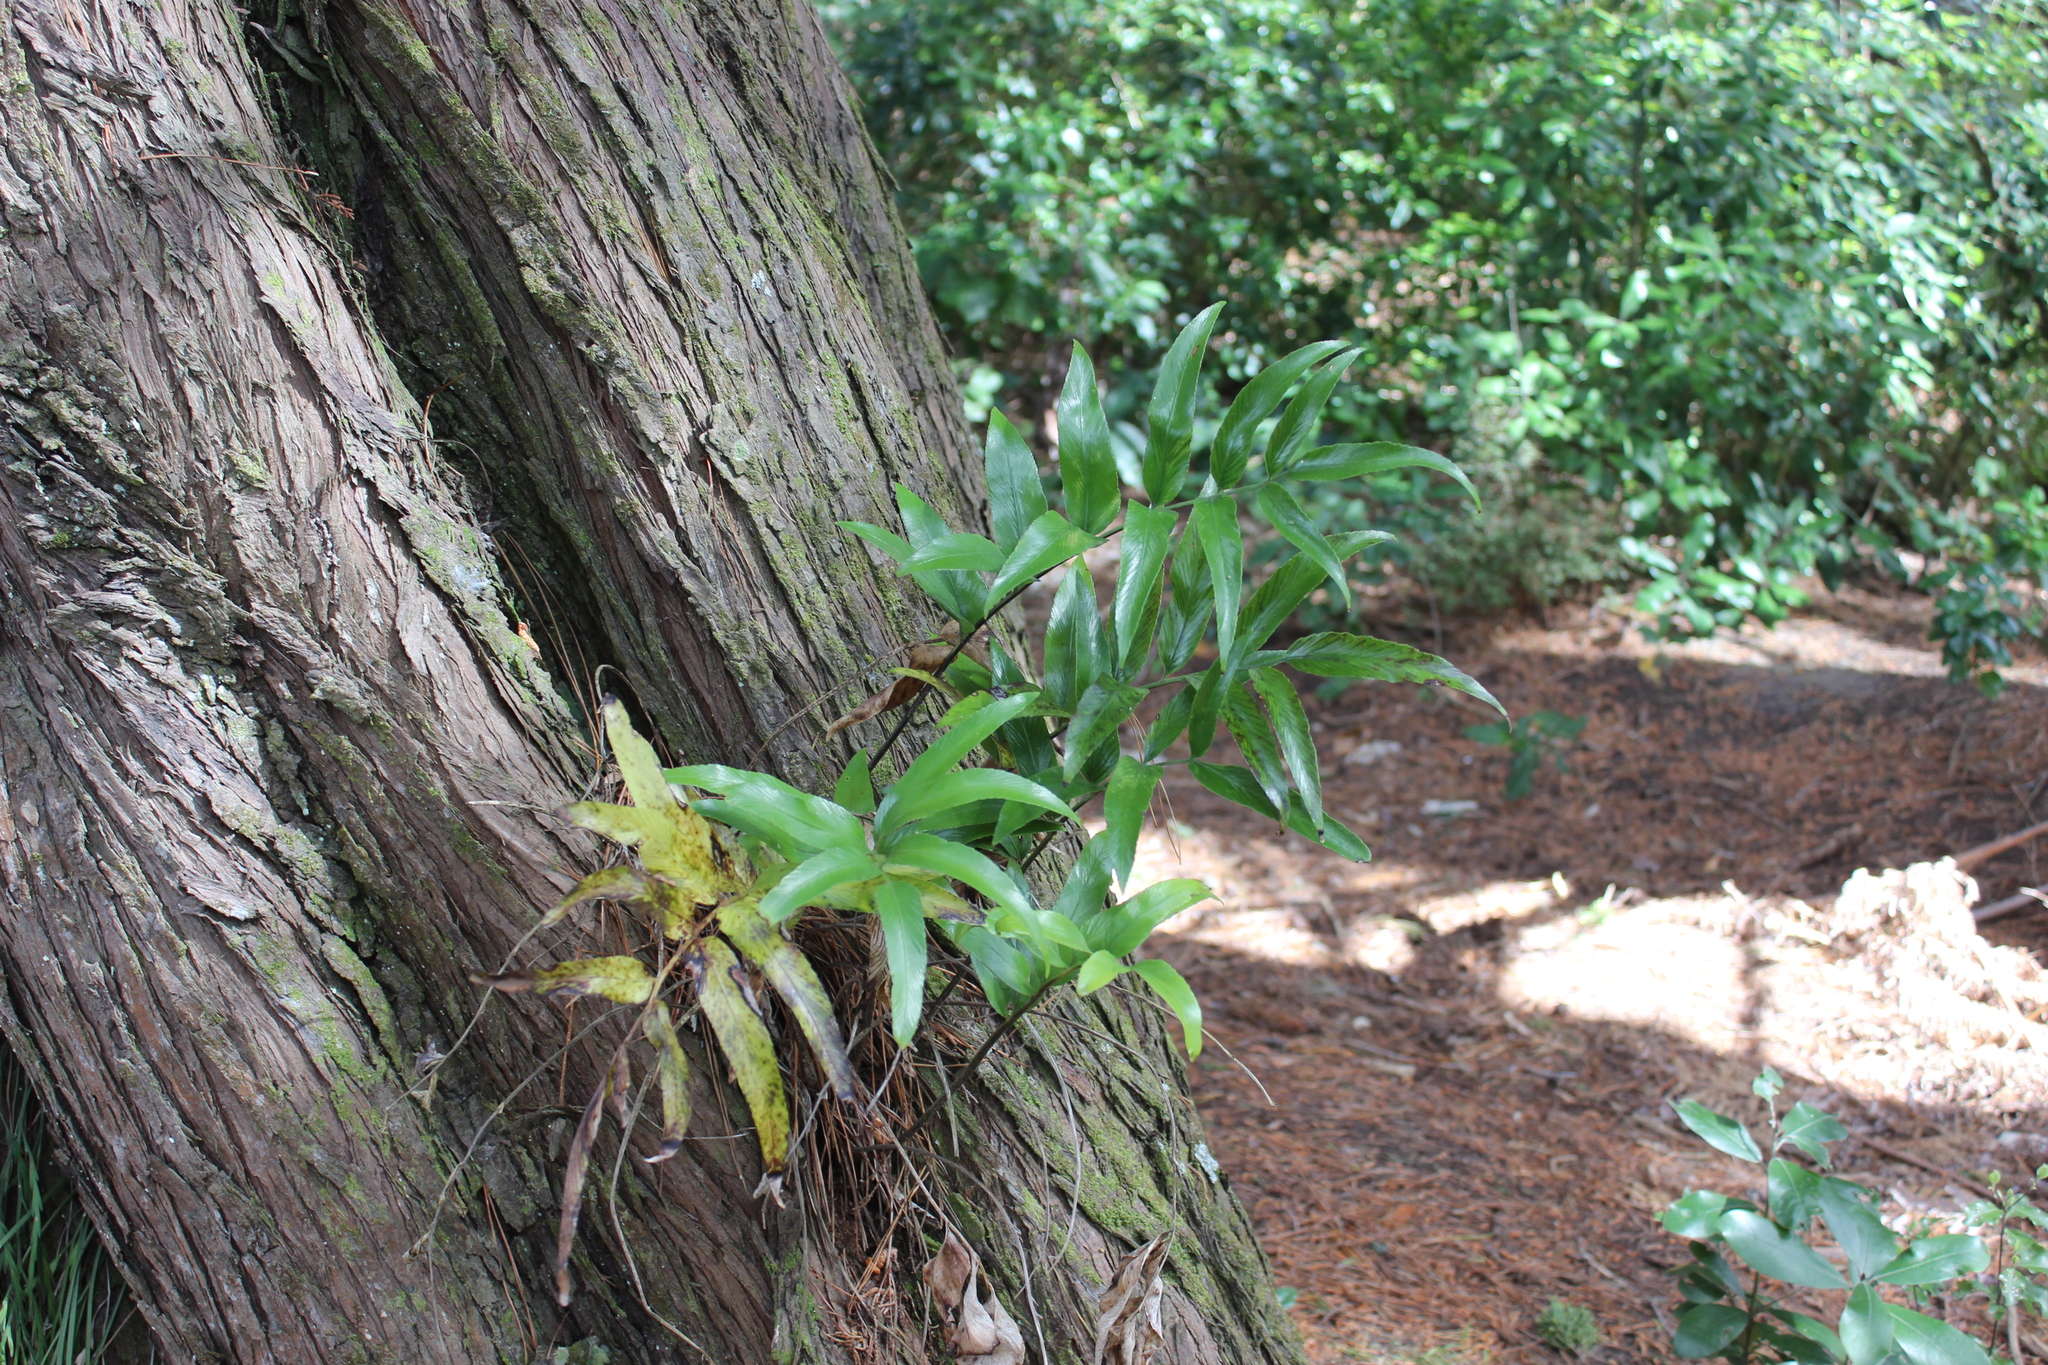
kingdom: Plantae
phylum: Tracheophyta
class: Polypodiopsida
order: Polypodiales
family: Aspleniaceae
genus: Asplenium
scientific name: Asplenium oblongifolium
